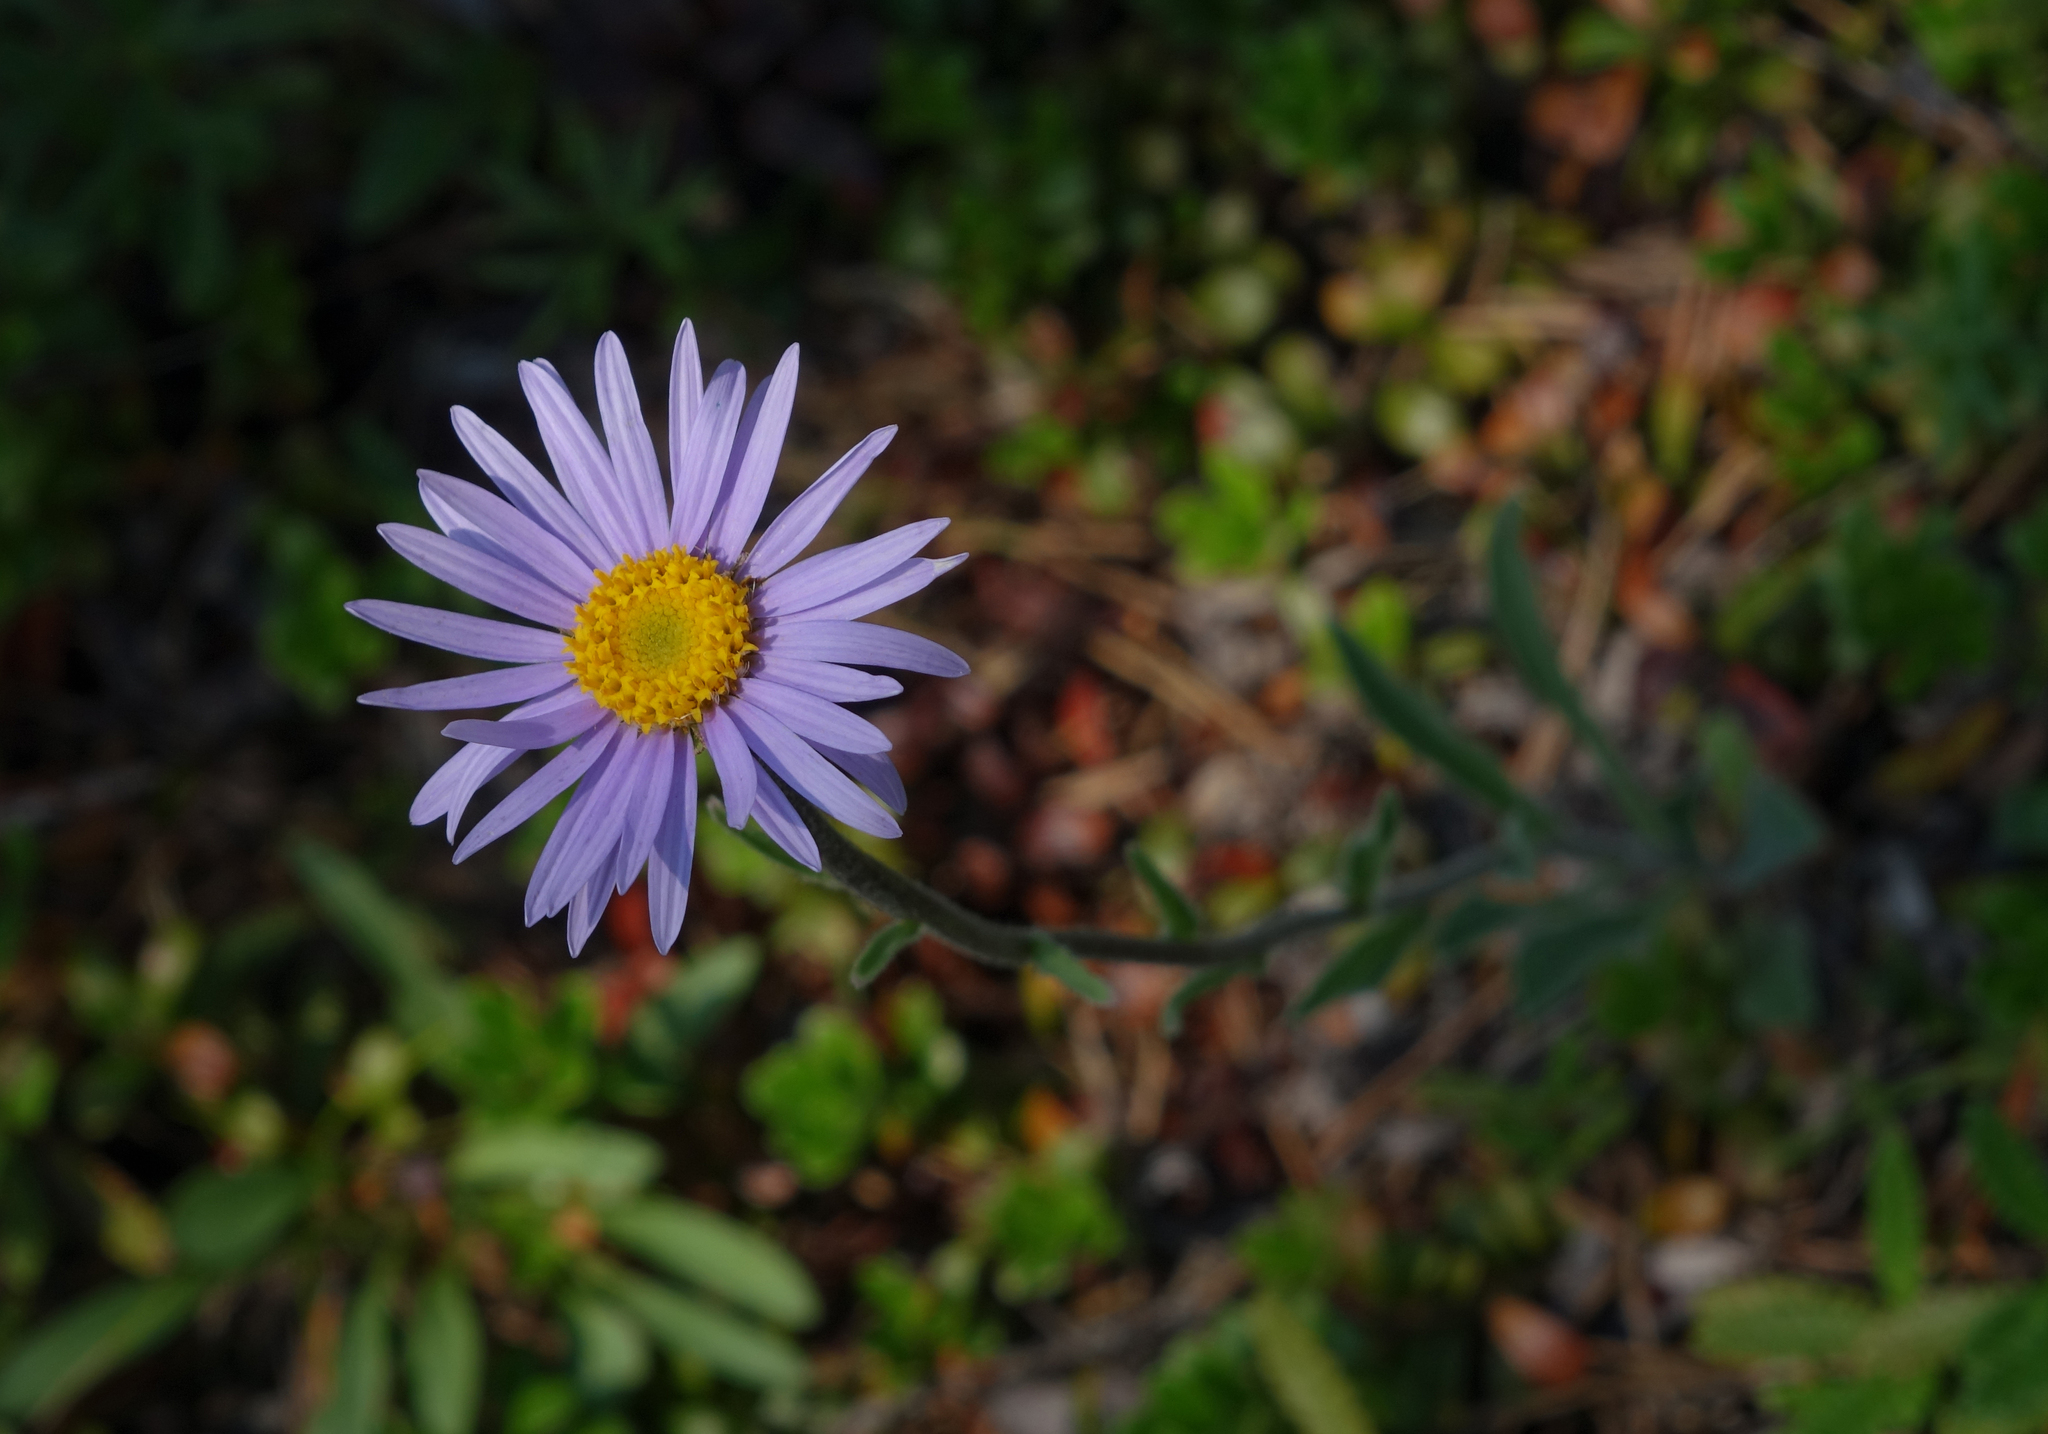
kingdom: Plantae
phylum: Tracheophyta
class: Magnoliopsida
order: Asterales
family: Asteraceae
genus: Aster
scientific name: Aster alpinus
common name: Alpine aster
